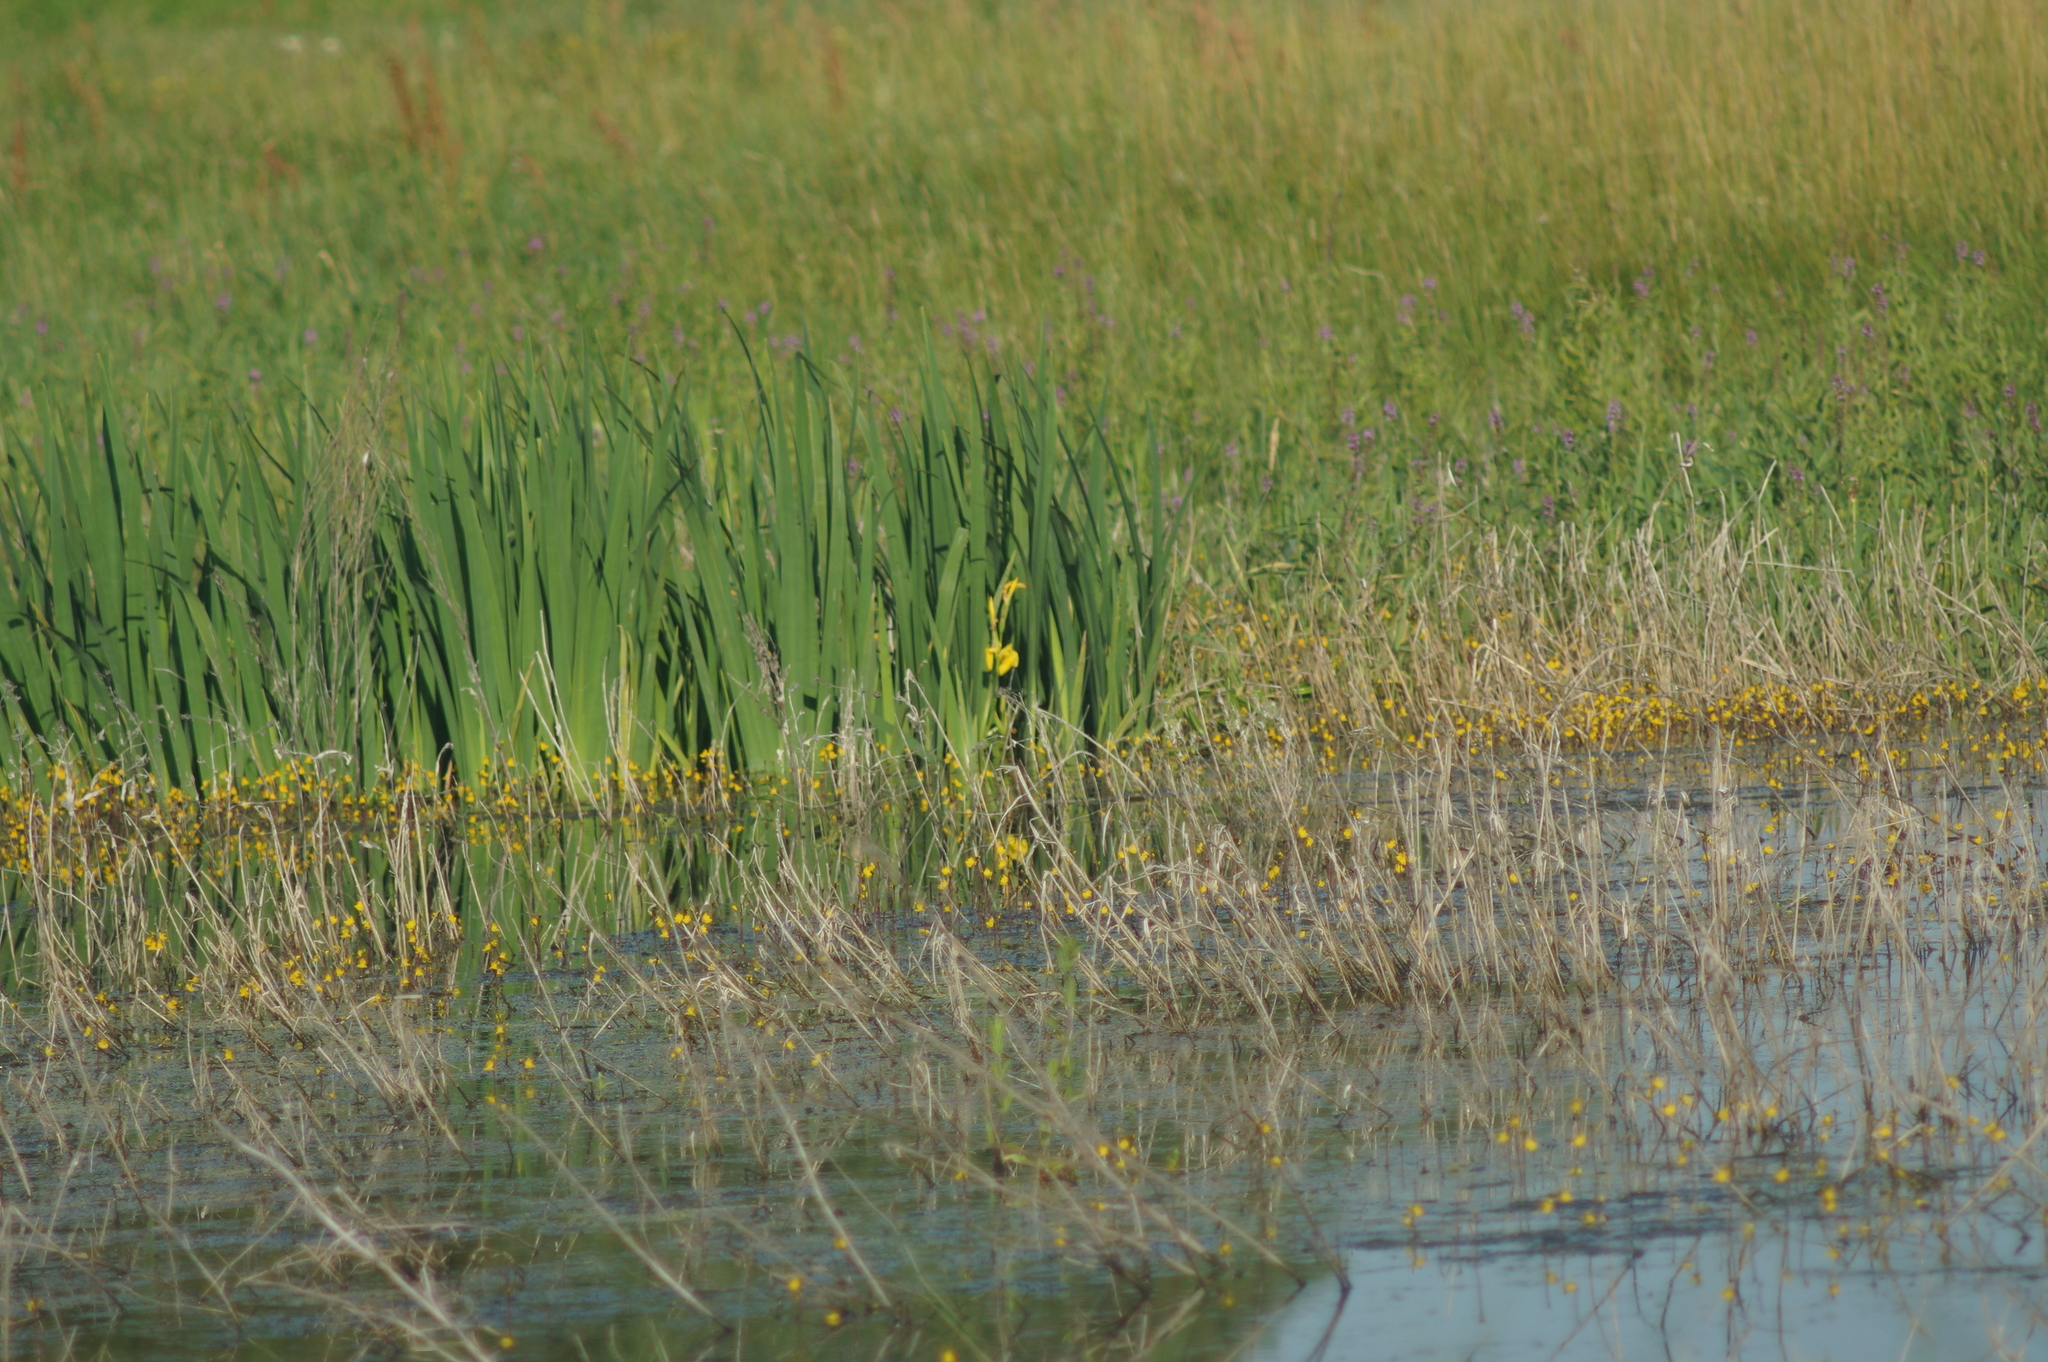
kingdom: Plantae
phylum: Tracheophyta
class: Liliopsida
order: Asparagales
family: Iridaceae
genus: Iris
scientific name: Iris pseudacorus
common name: Yellow flag
